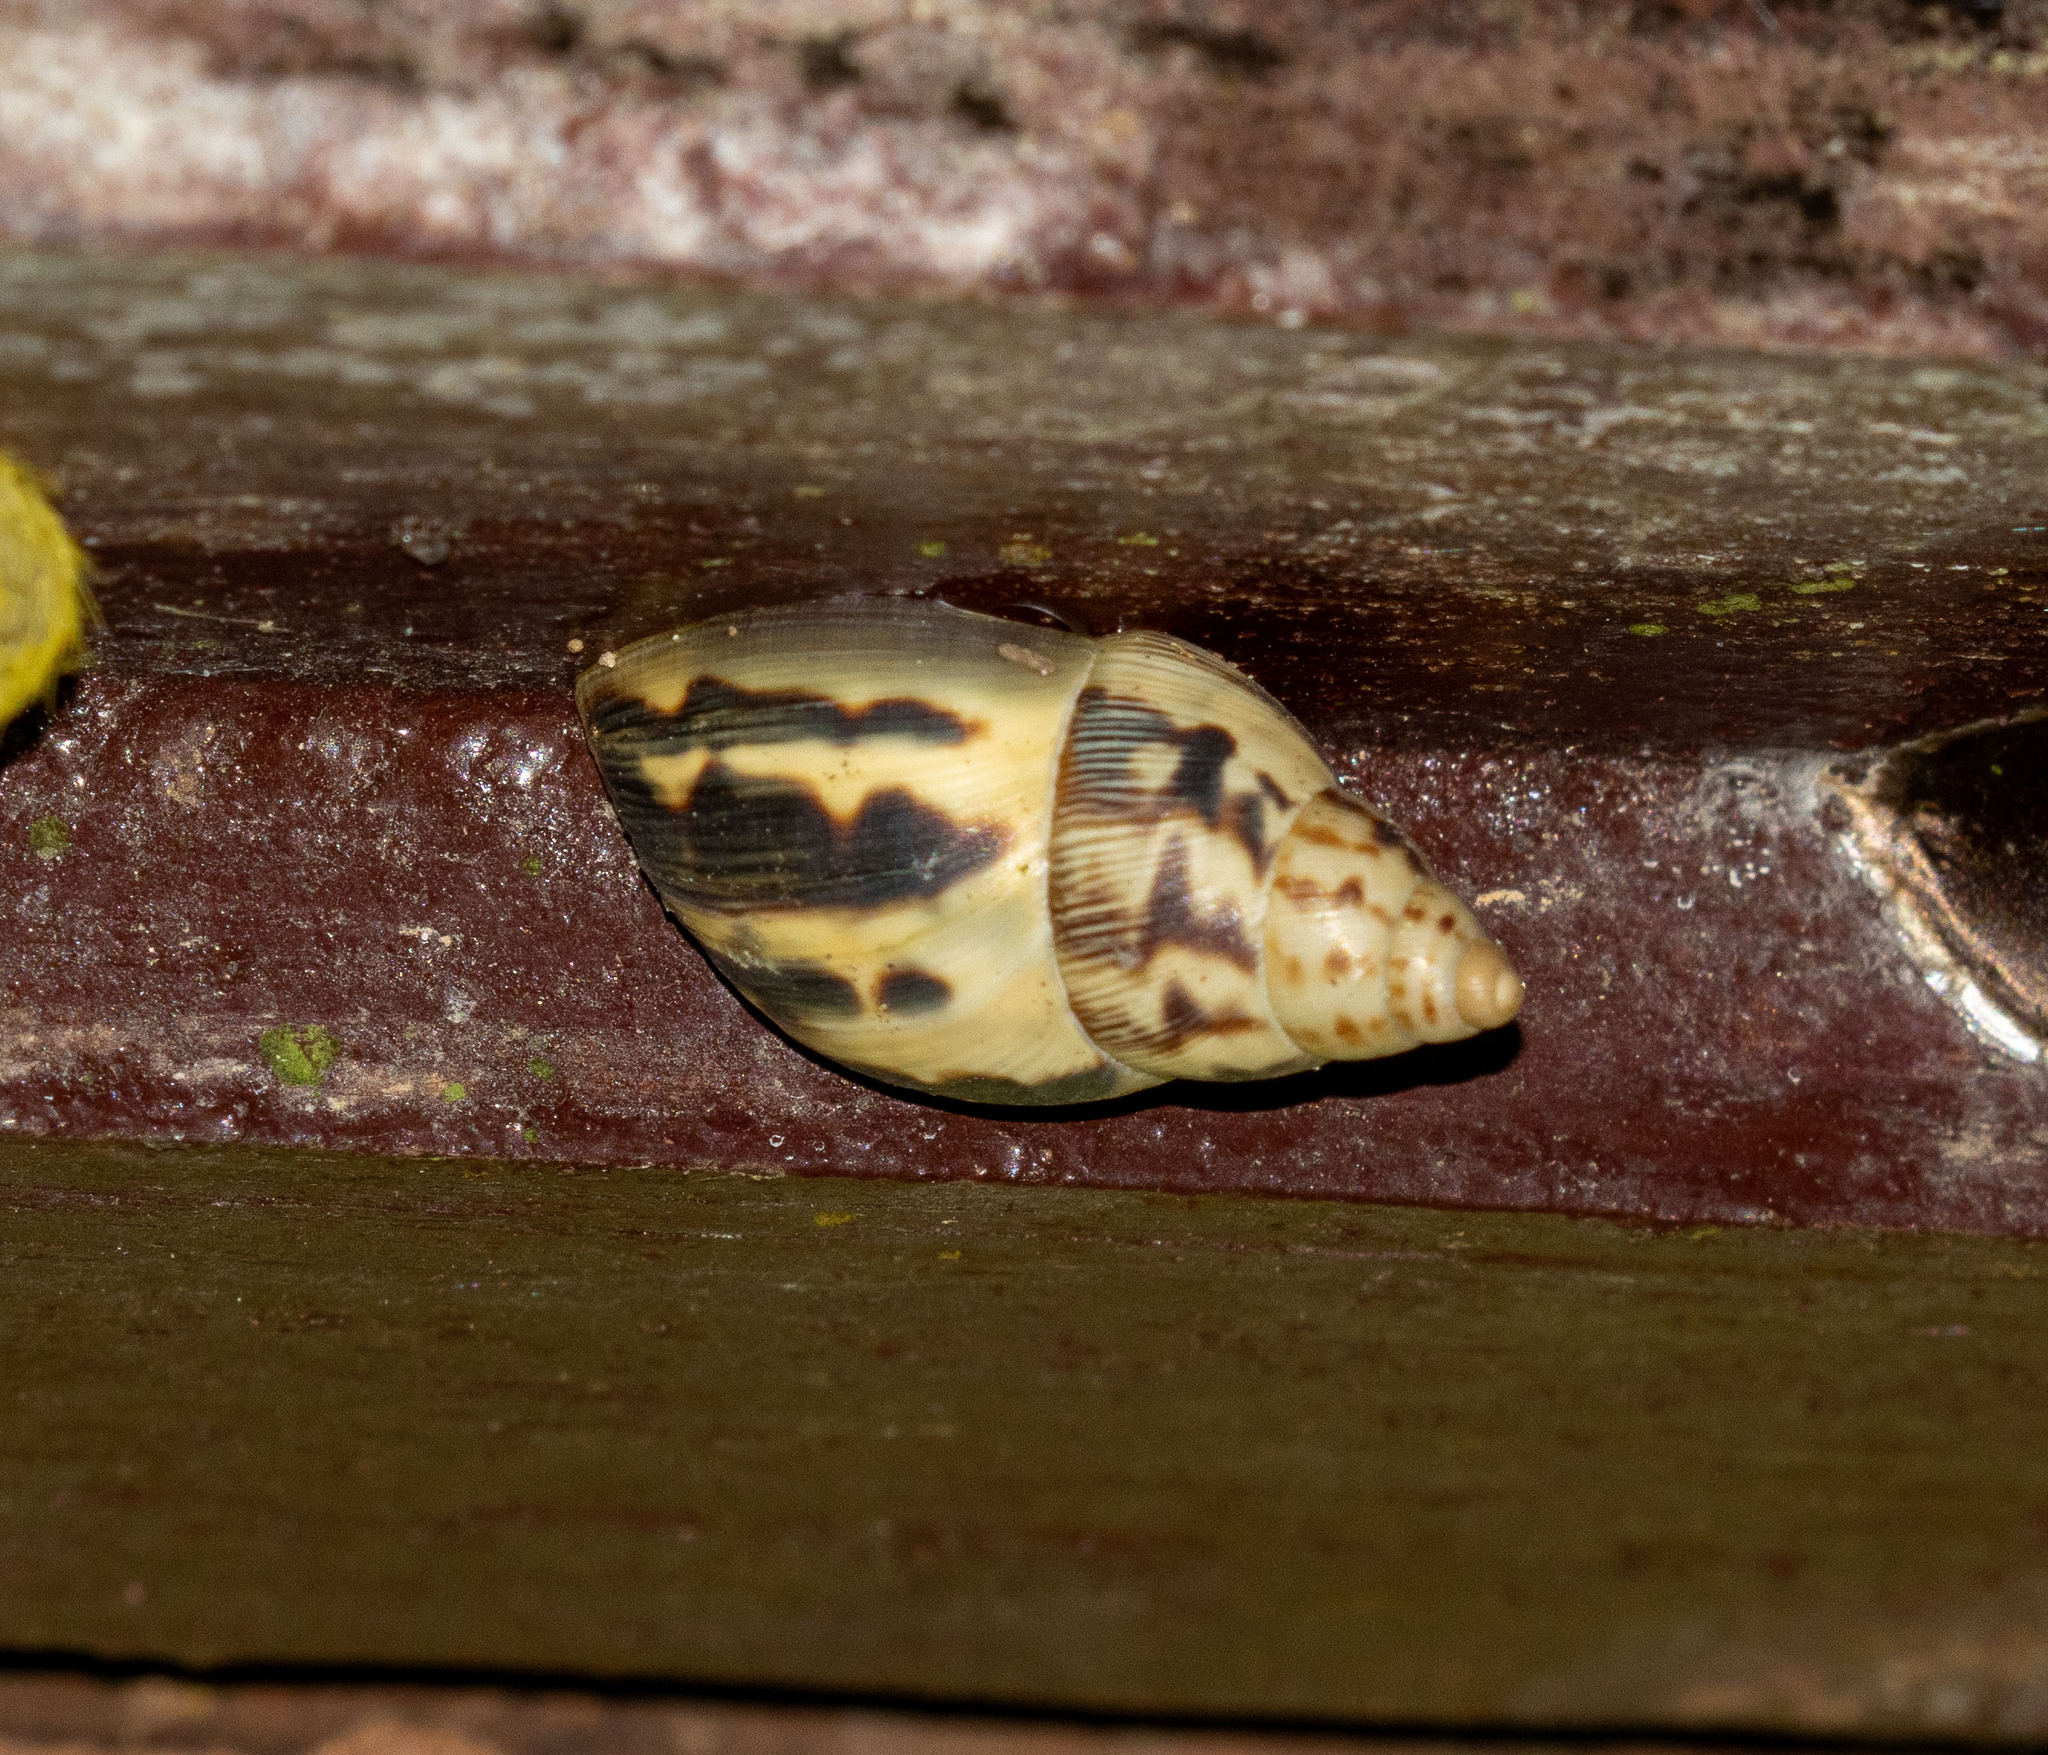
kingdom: Animalia
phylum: Mollusca
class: Gastropoda
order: Stylommatophora
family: Bulimulidae
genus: Drymaeus
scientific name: Drymaeus papyraceus
